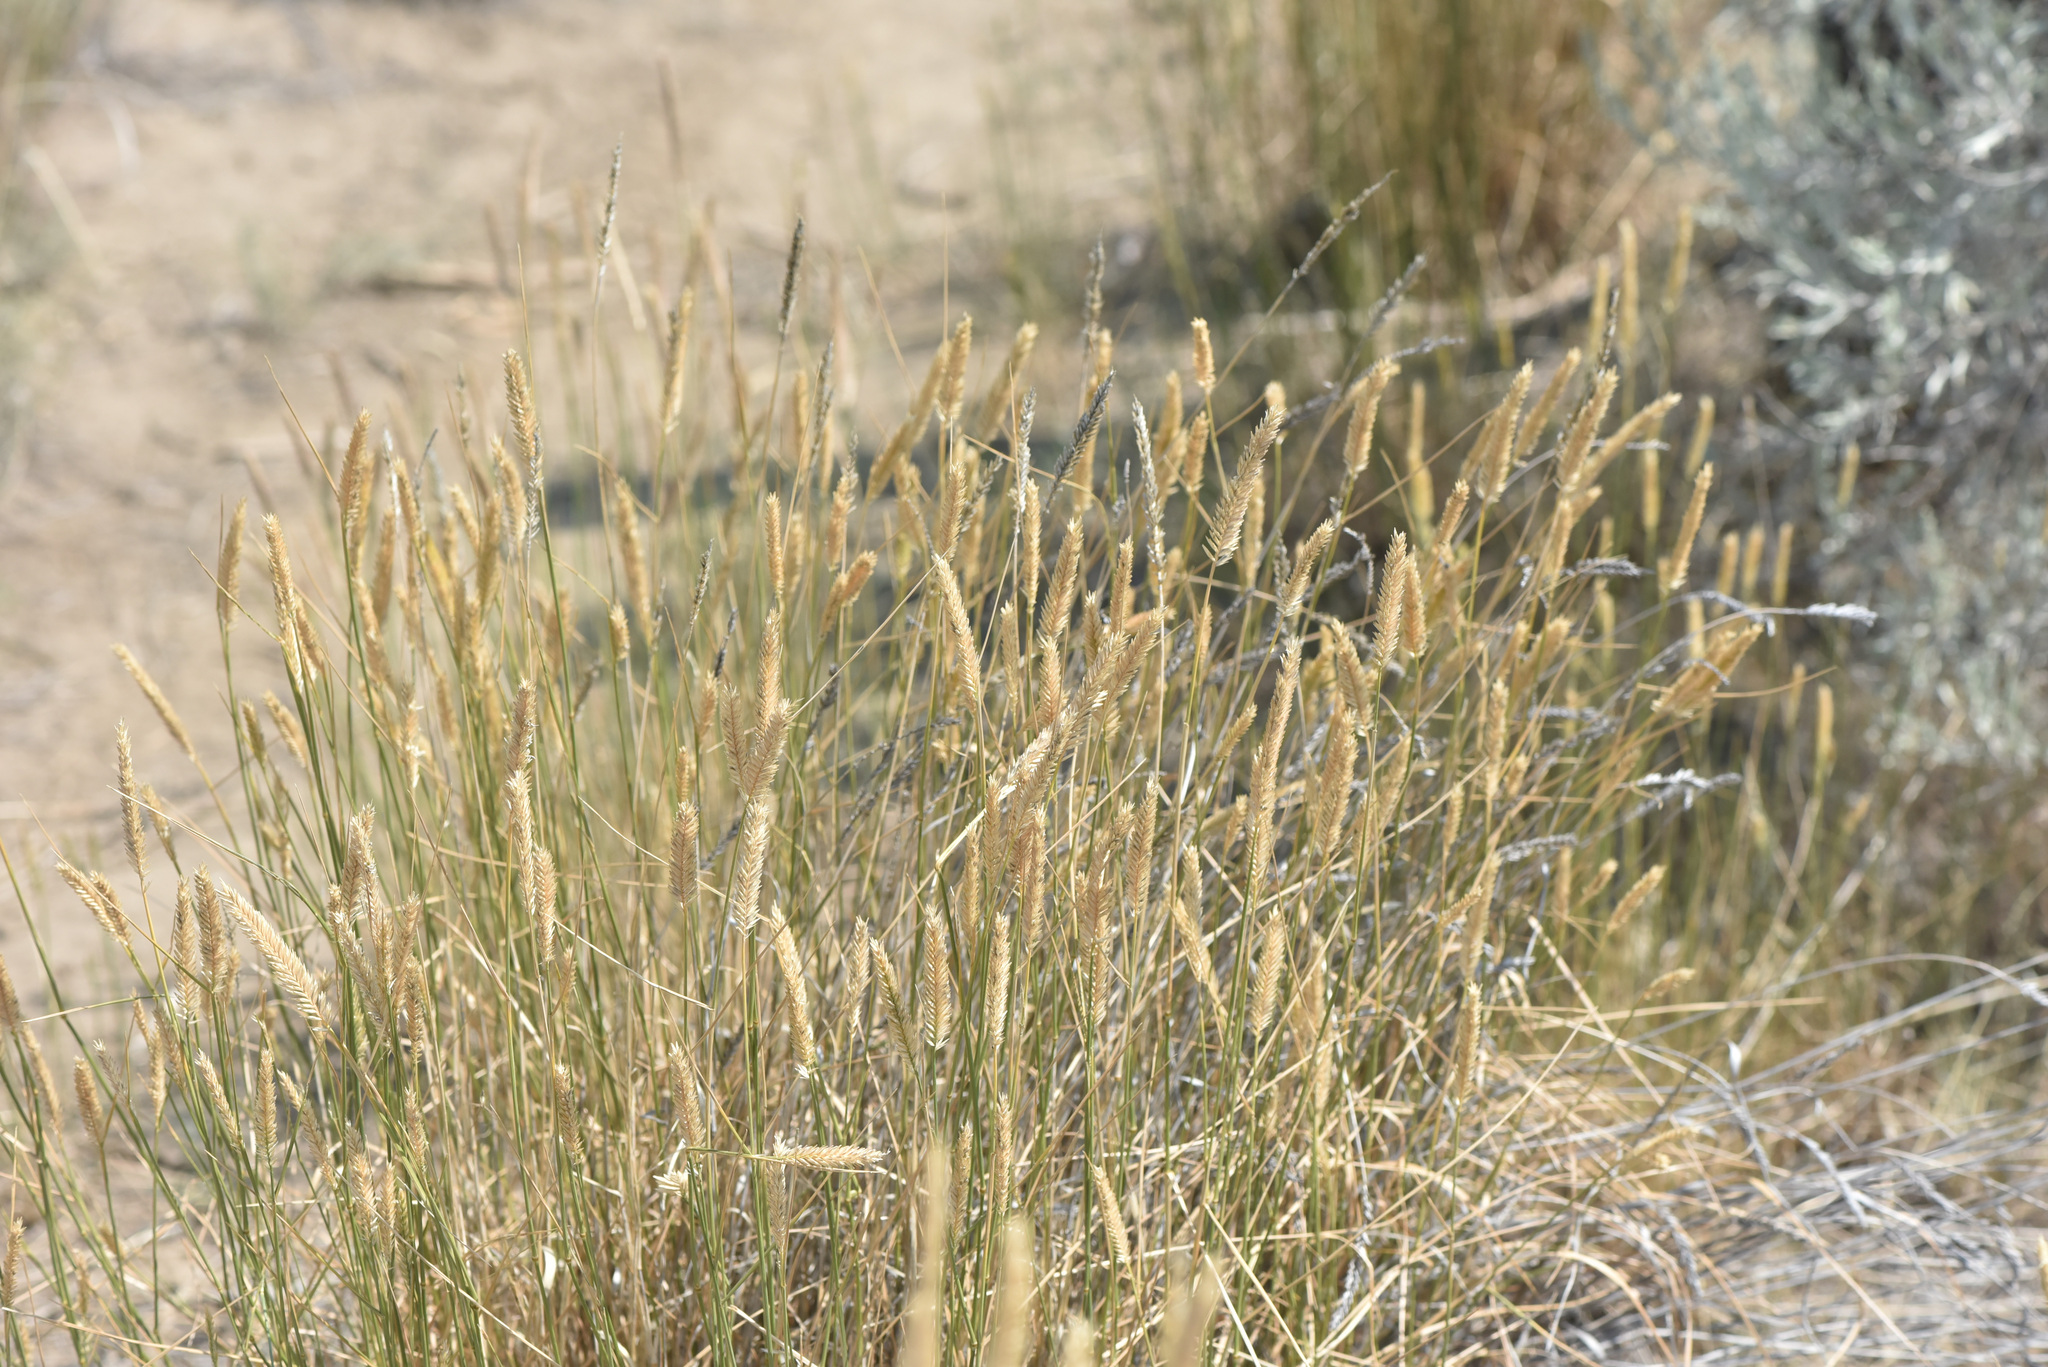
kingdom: Plantae
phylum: Tracheophyta
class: Liliopsida
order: Poales
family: Poaceae
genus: Agropyron
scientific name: Agropyron cristatum
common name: Crested wheatgrass
